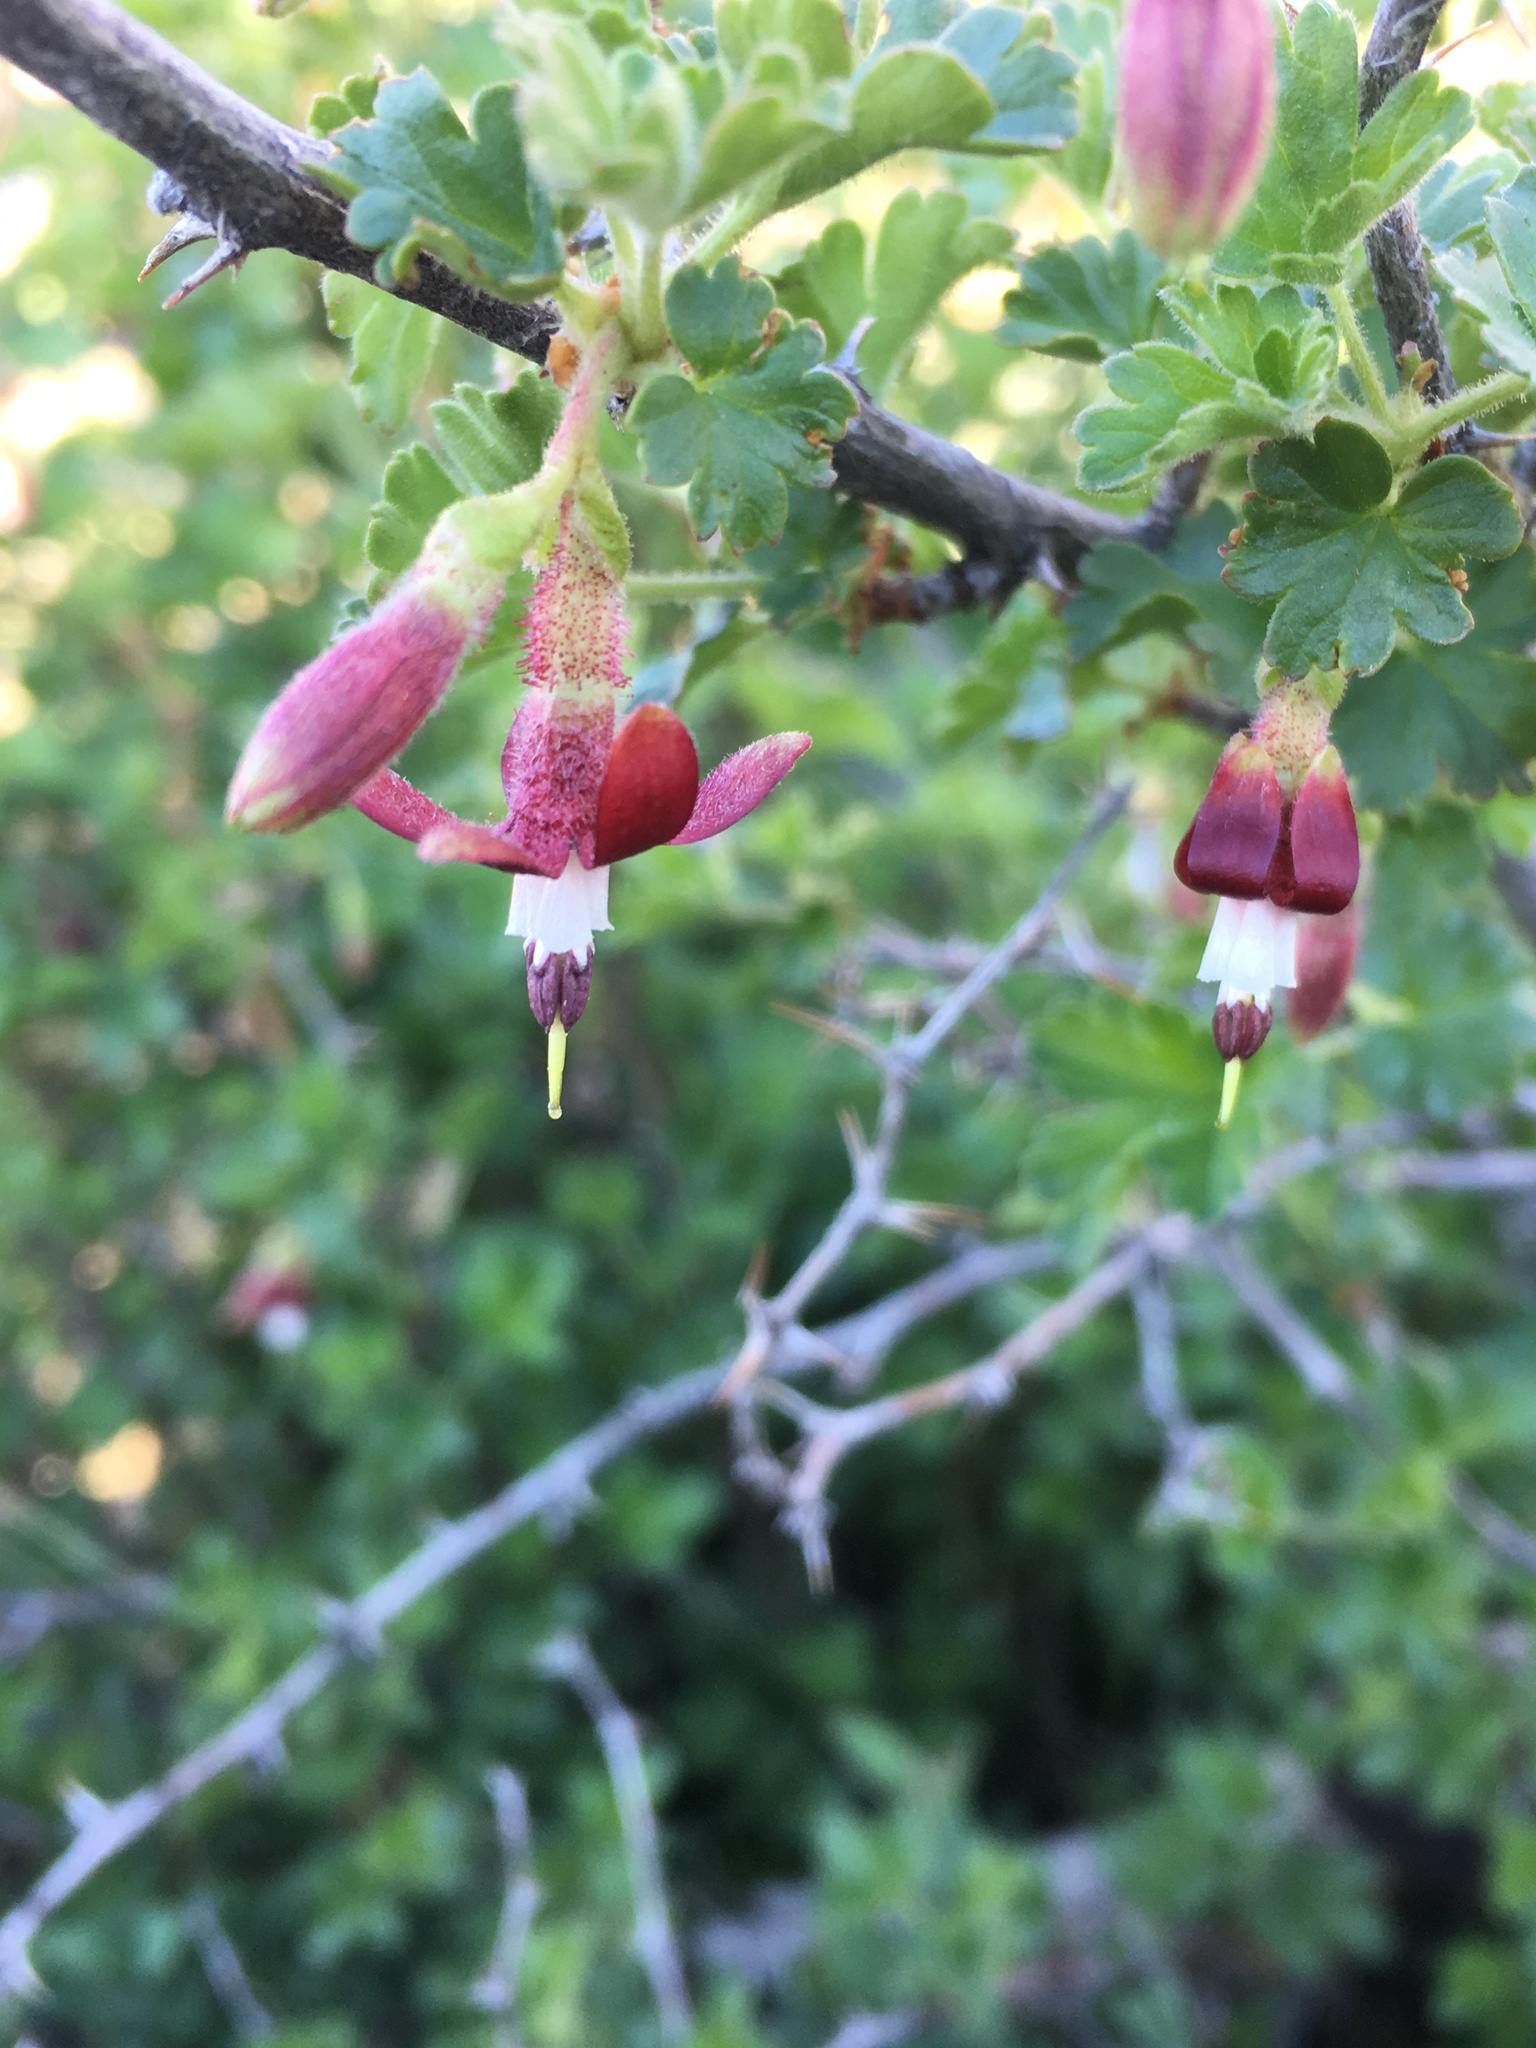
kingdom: Plantae
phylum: Tracheophyta
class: Magnoliopsida
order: Saxifragales
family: Grossulariaceae
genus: Ribes
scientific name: Ribes roezlii
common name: Sierra gooseberry
